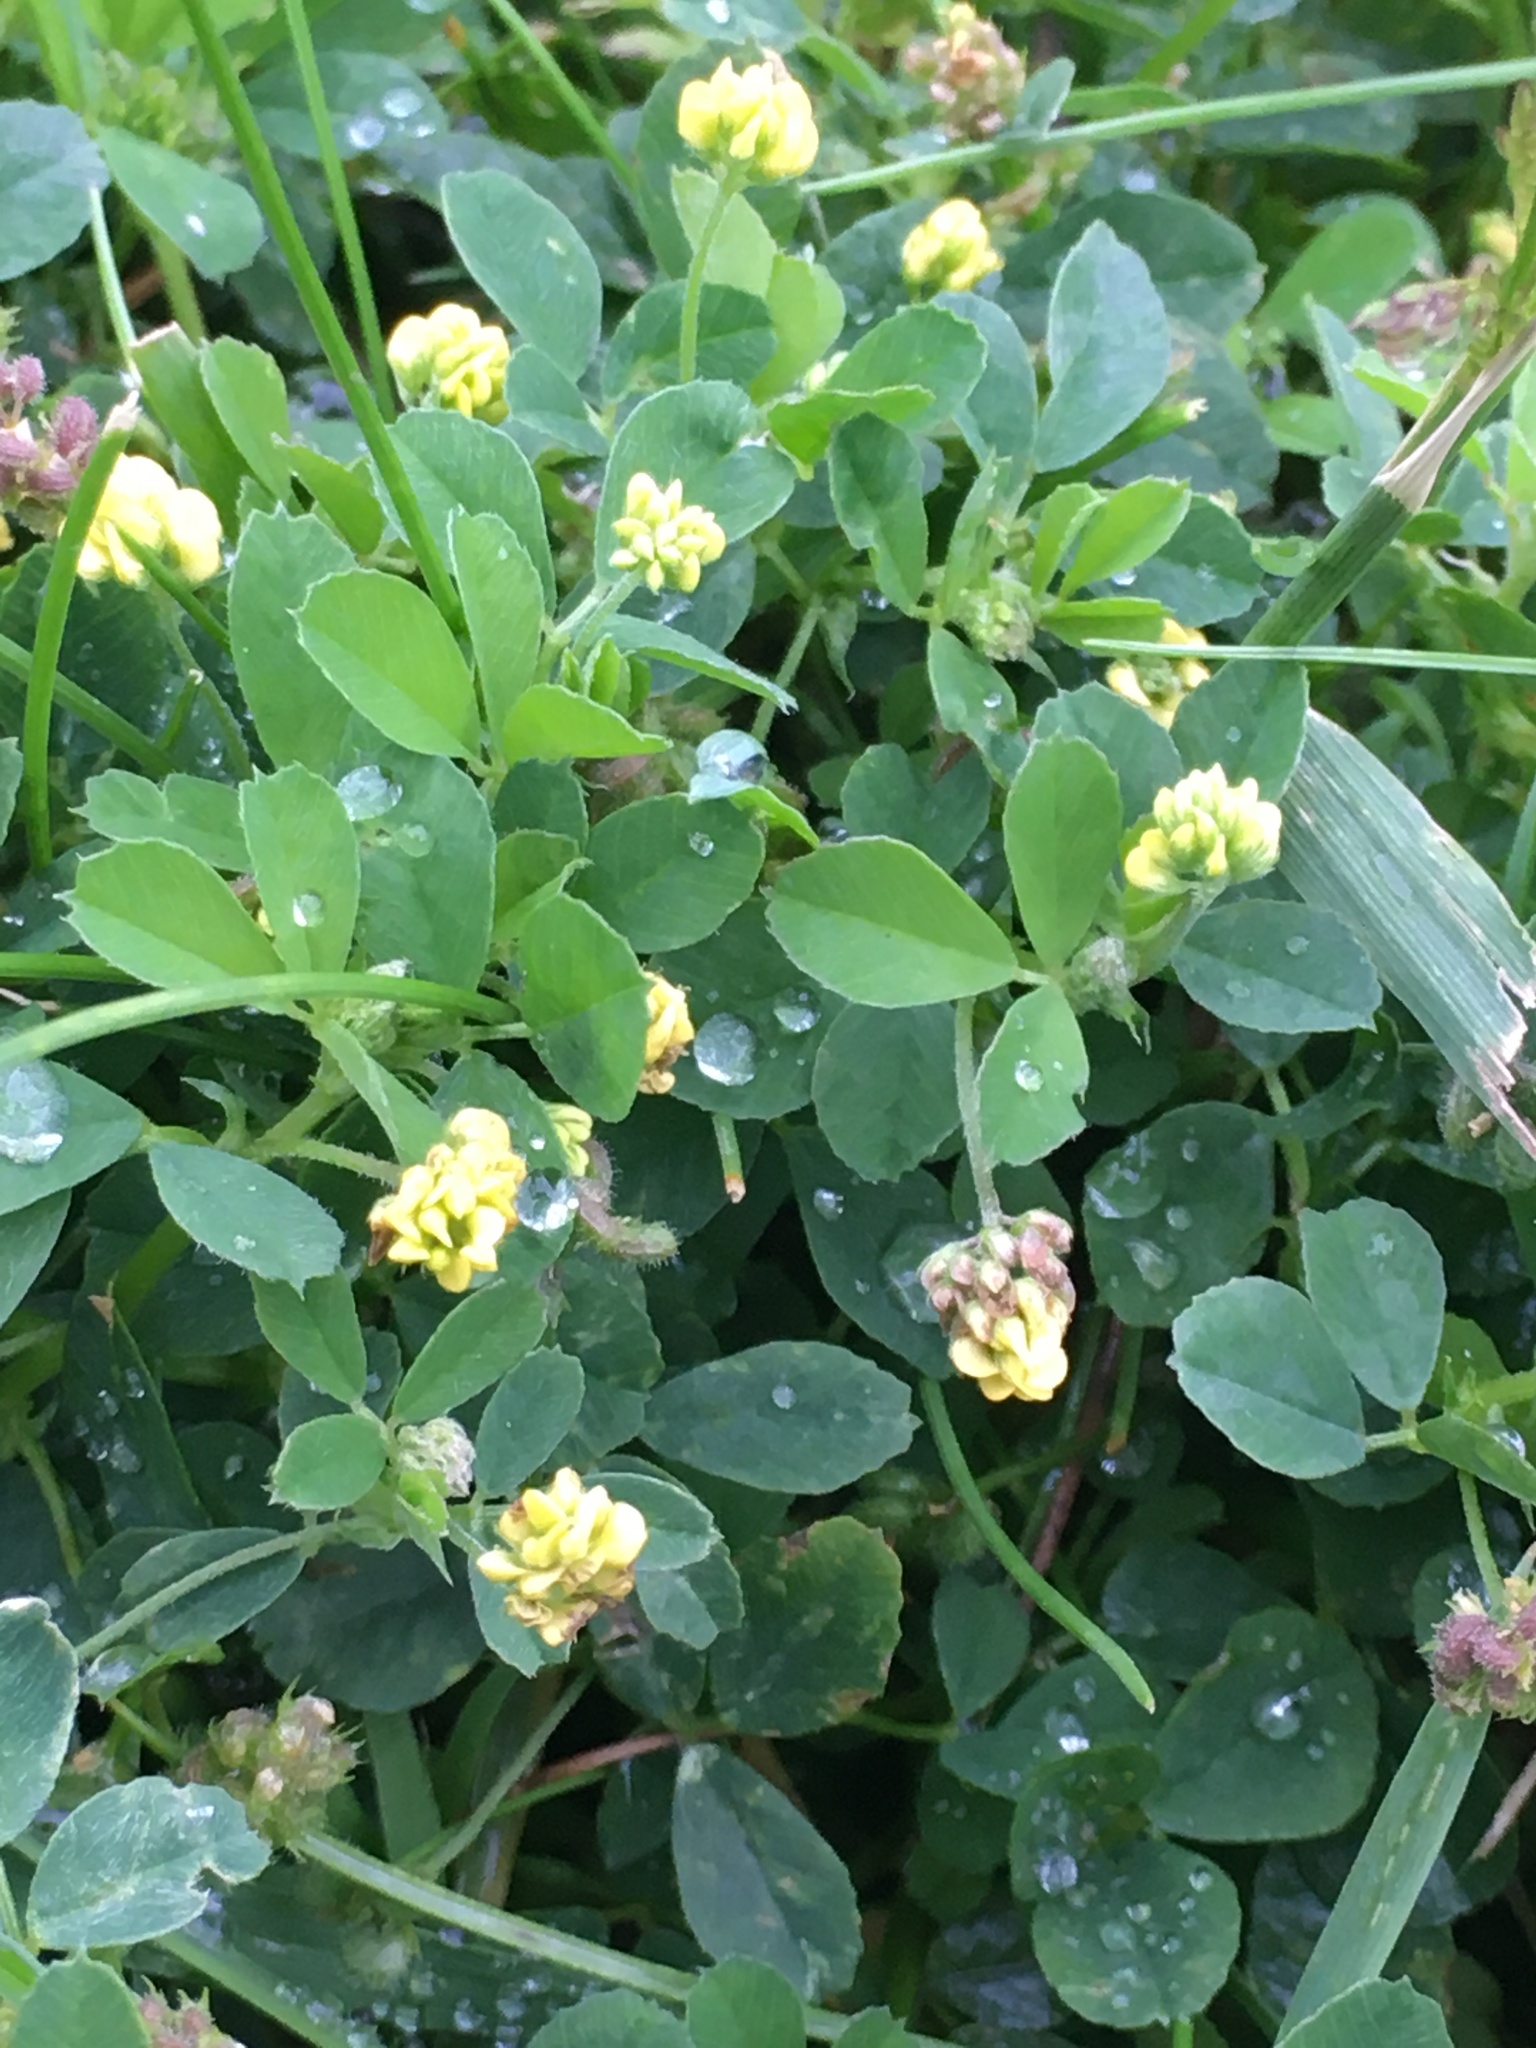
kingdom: Plantae
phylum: Tracheophyta
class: Magnoliopsida
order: Fabales
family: Fabaceae
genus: Medicago
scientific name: Medicago lupulina
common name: Black medick
